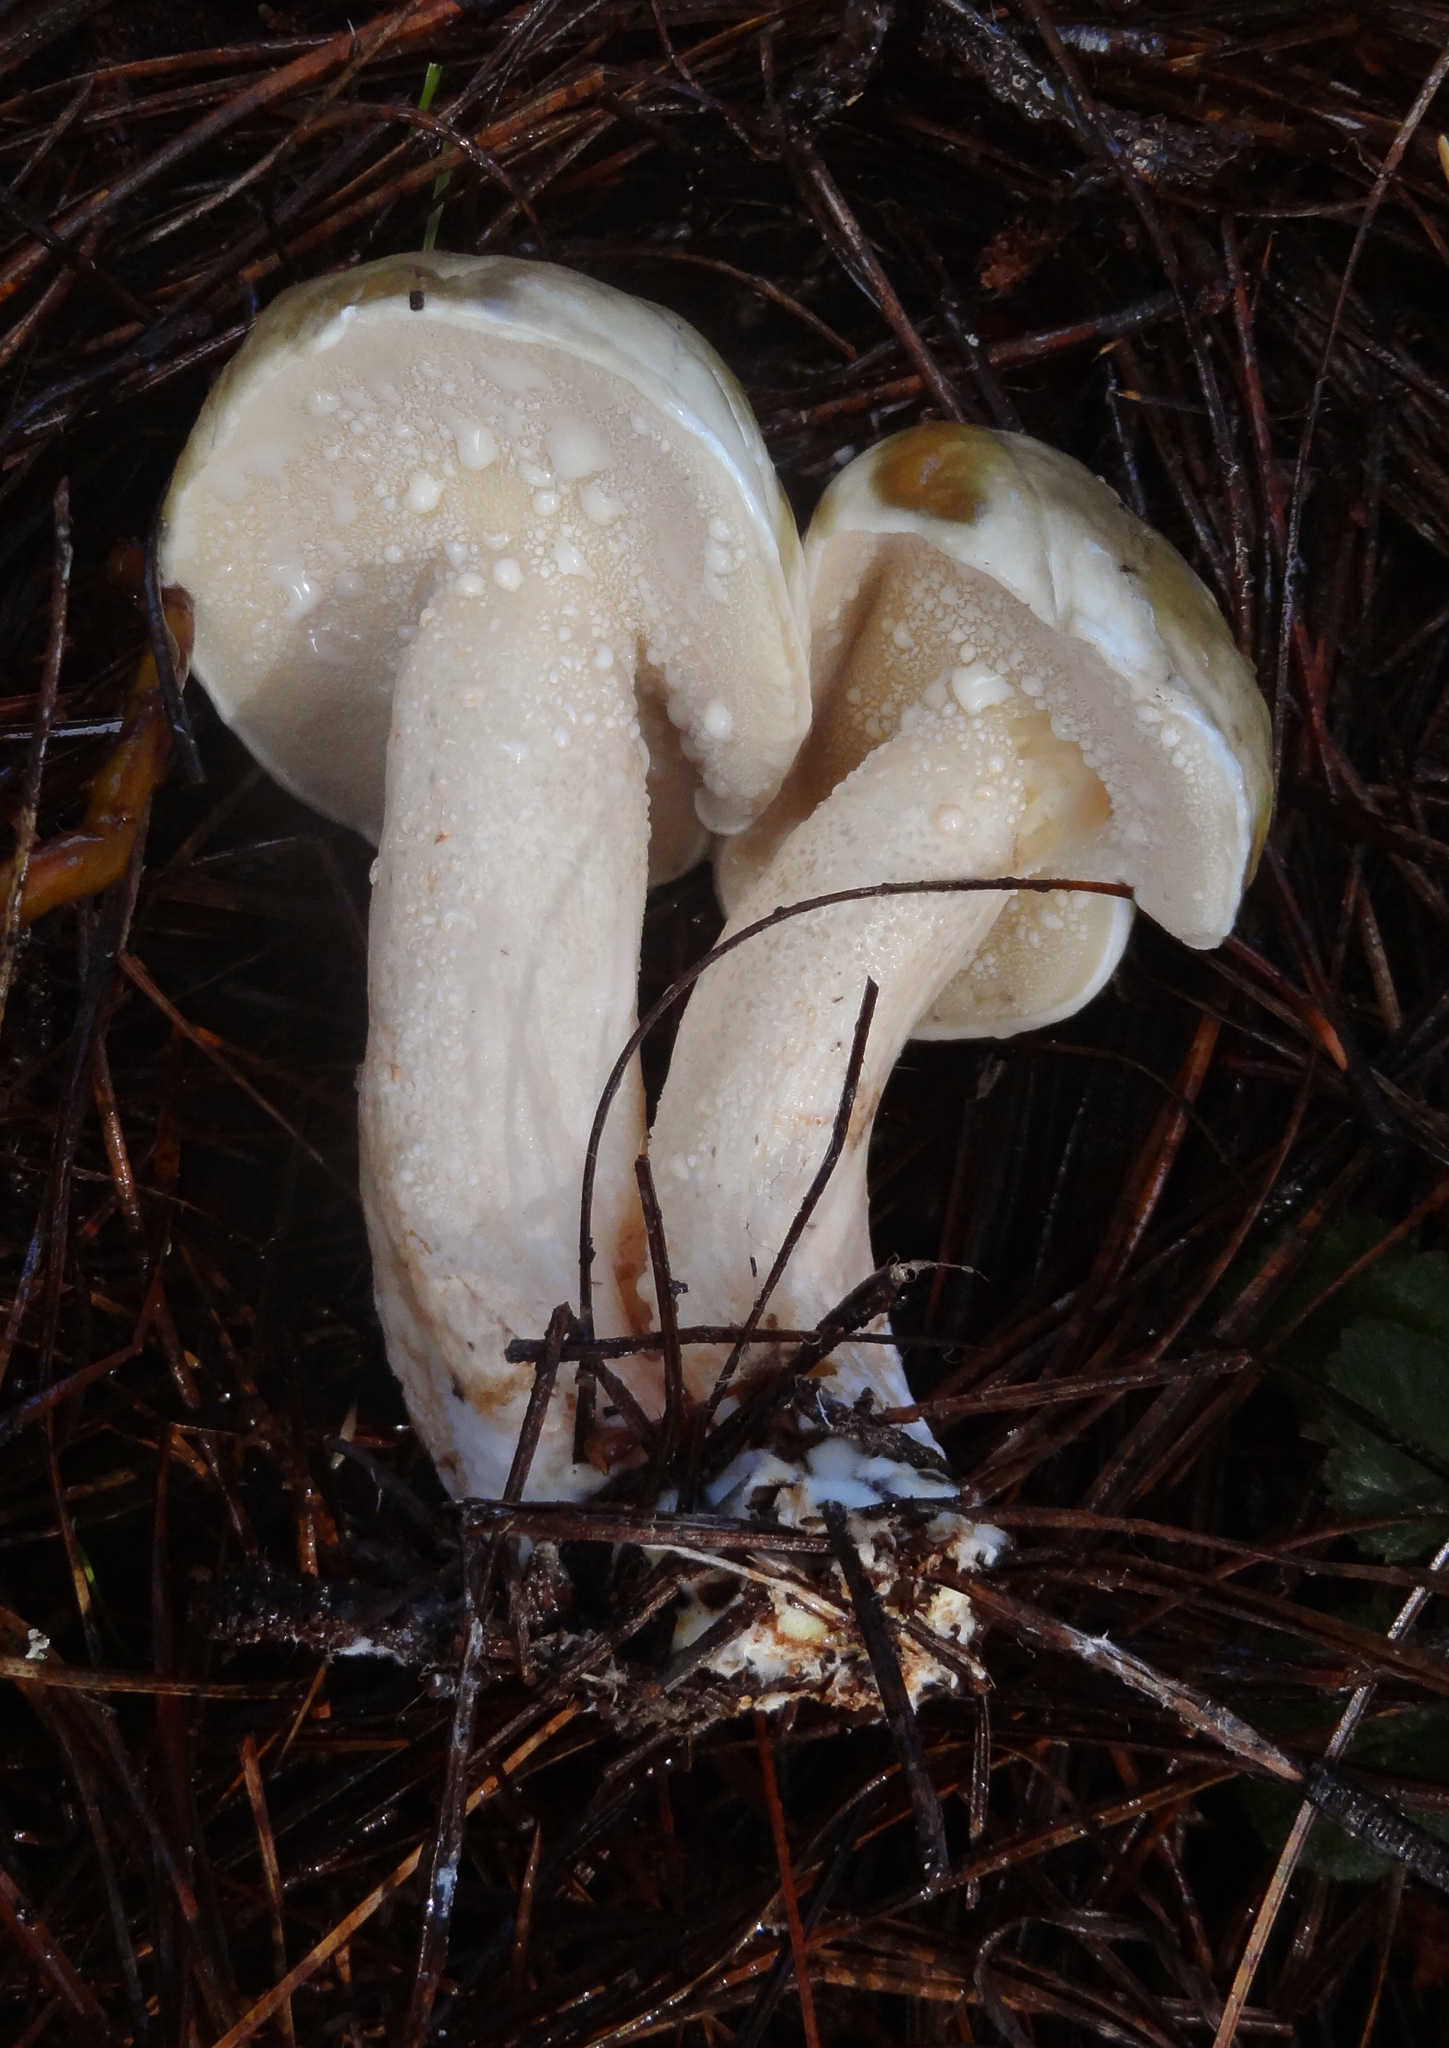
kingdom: Fungi
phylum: Basidiomycota
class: Agaricomycetes
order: Boletales
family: Suillaceae
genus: Suillus
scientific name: Suillus pungens
